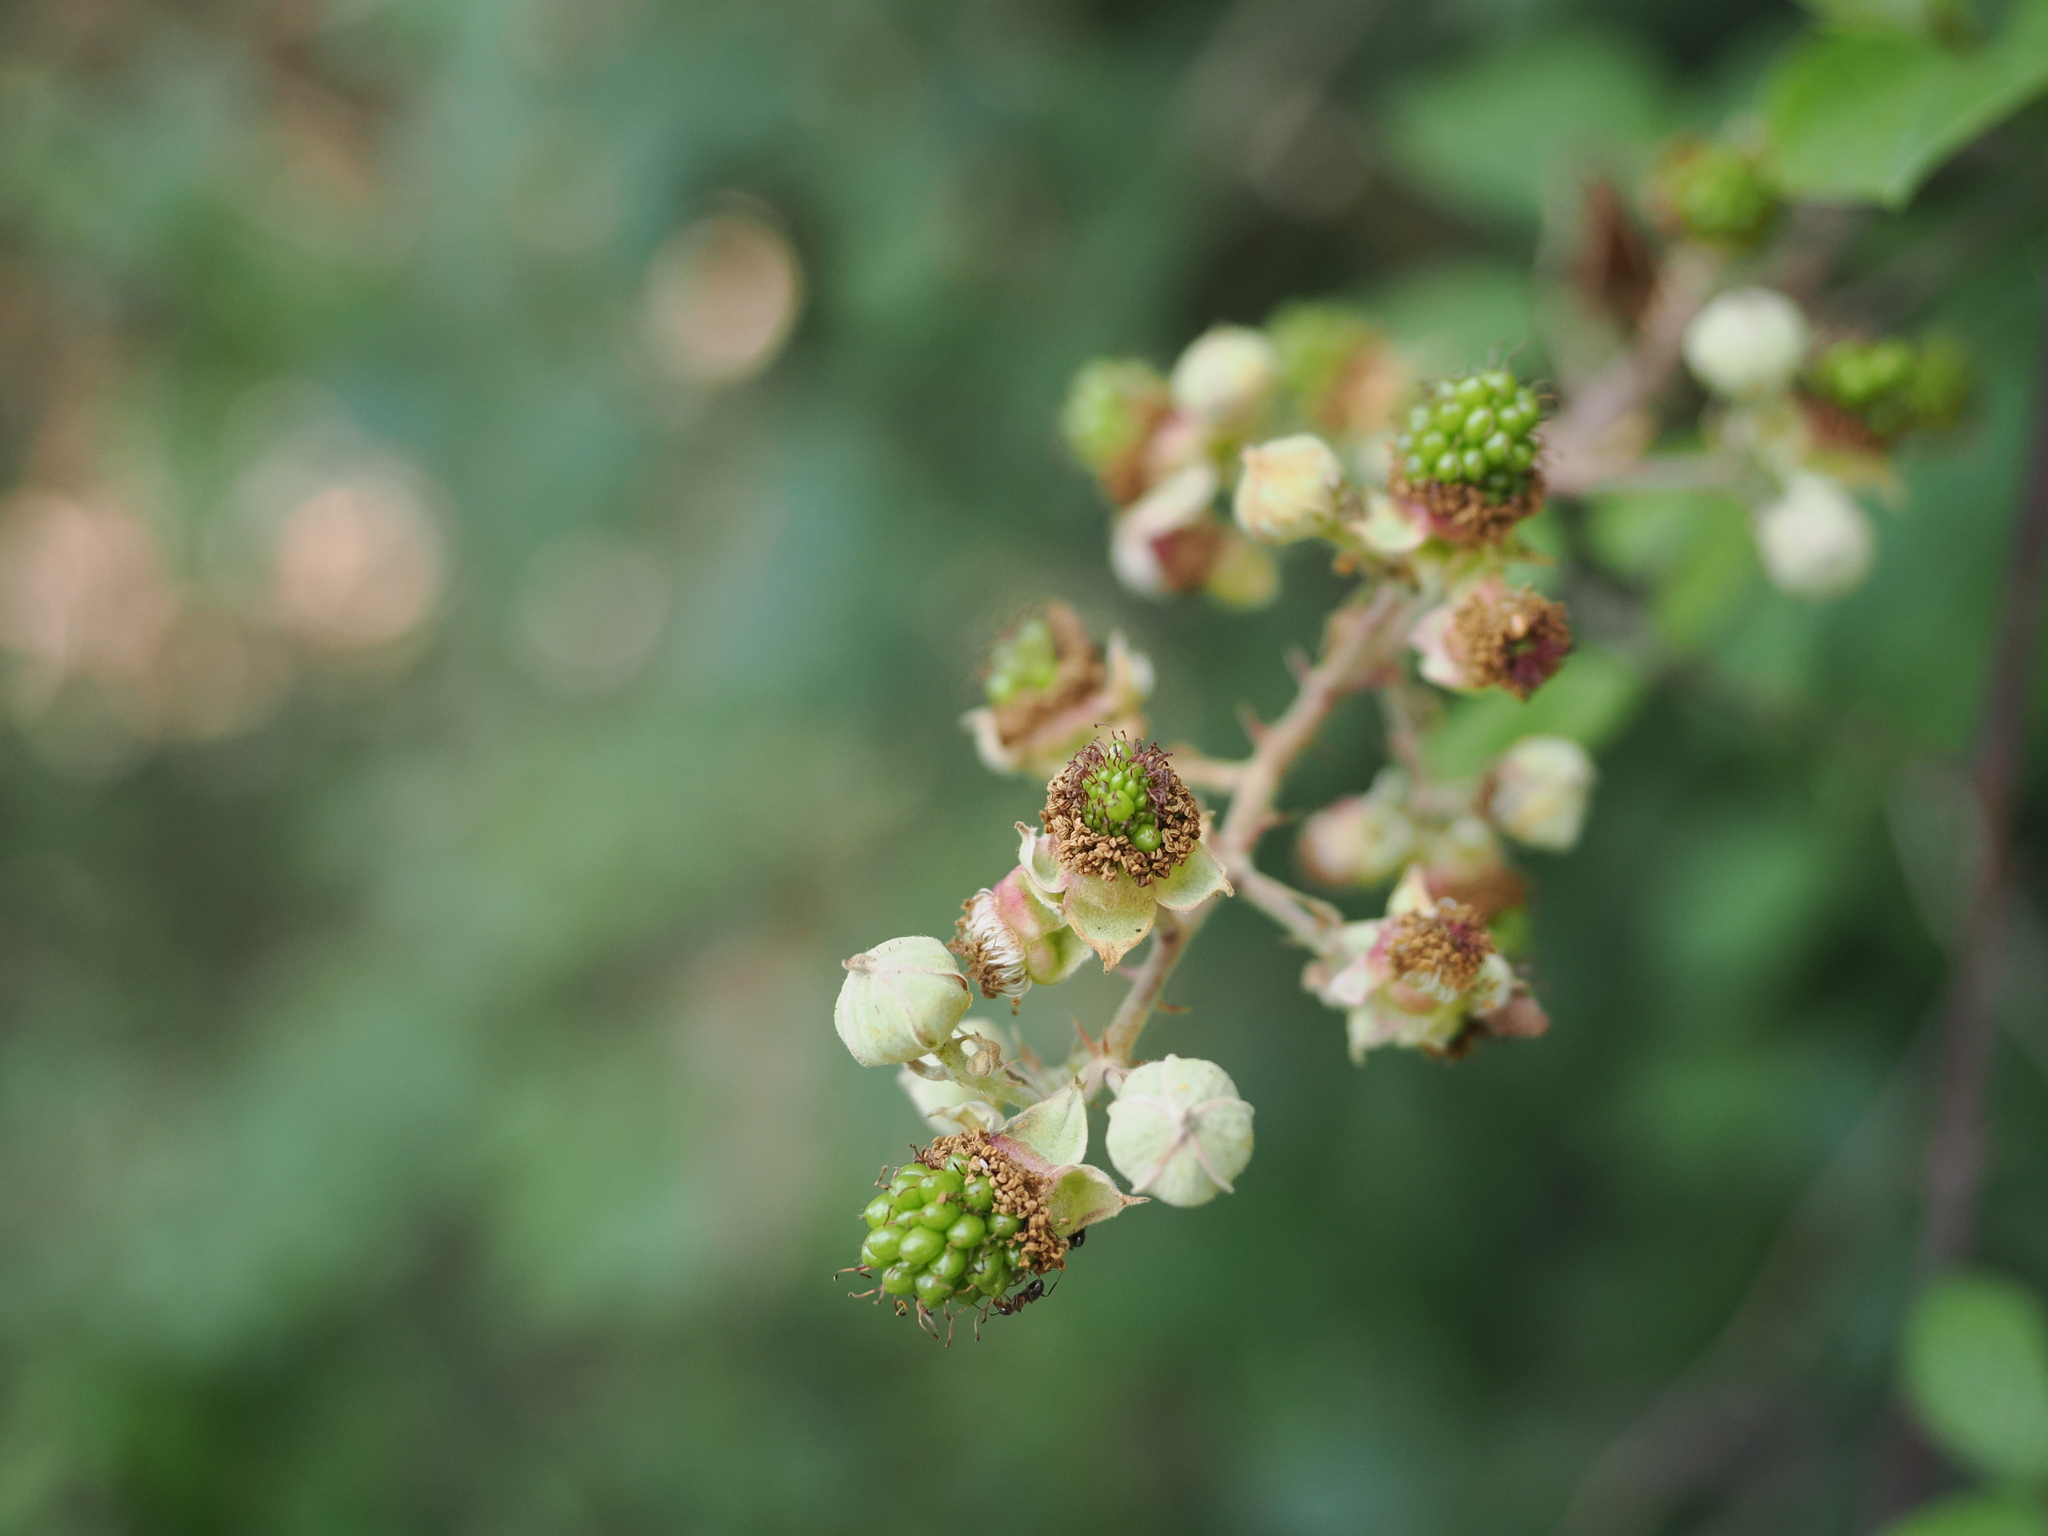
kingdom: Plantae
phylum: Tracheophyta
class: Magnoliopsida
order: Rosales
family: Rosaceae
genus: Rubus
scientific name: Rubus ulmifolius
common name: Elmleaf blackberry
